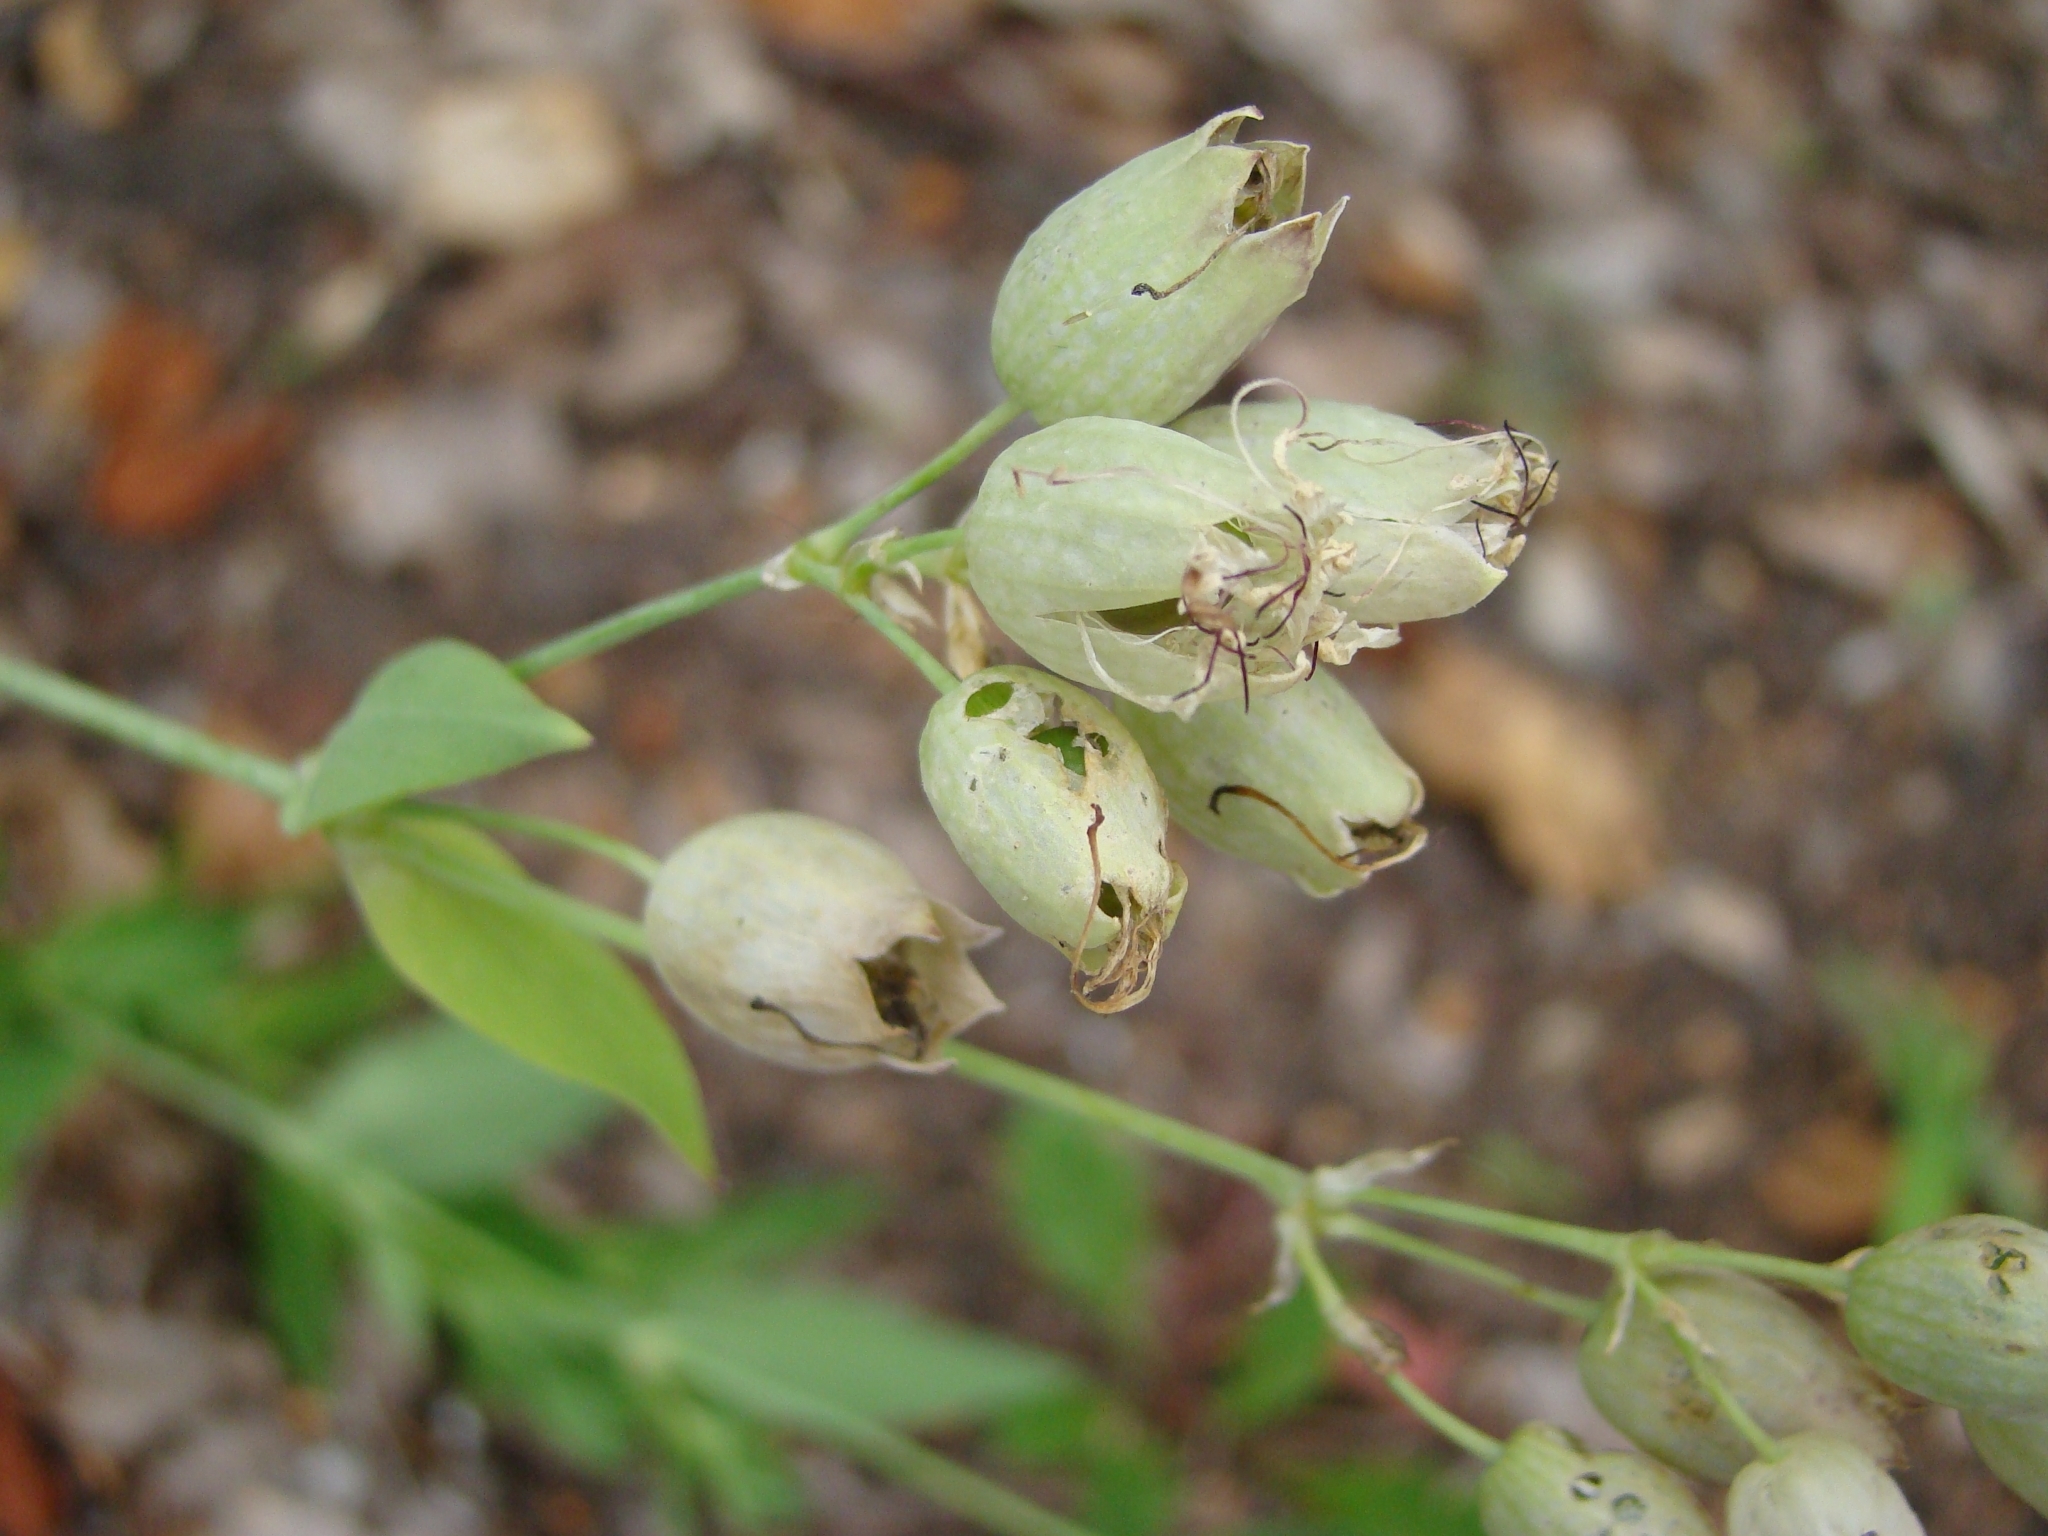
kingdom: Plantae
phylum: Tracheophyta
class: Magnoliopsida
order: Caryophyllales
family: Caryophyllaceae
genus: Silene
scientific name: Silene vulgaris
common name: Bladder campion
